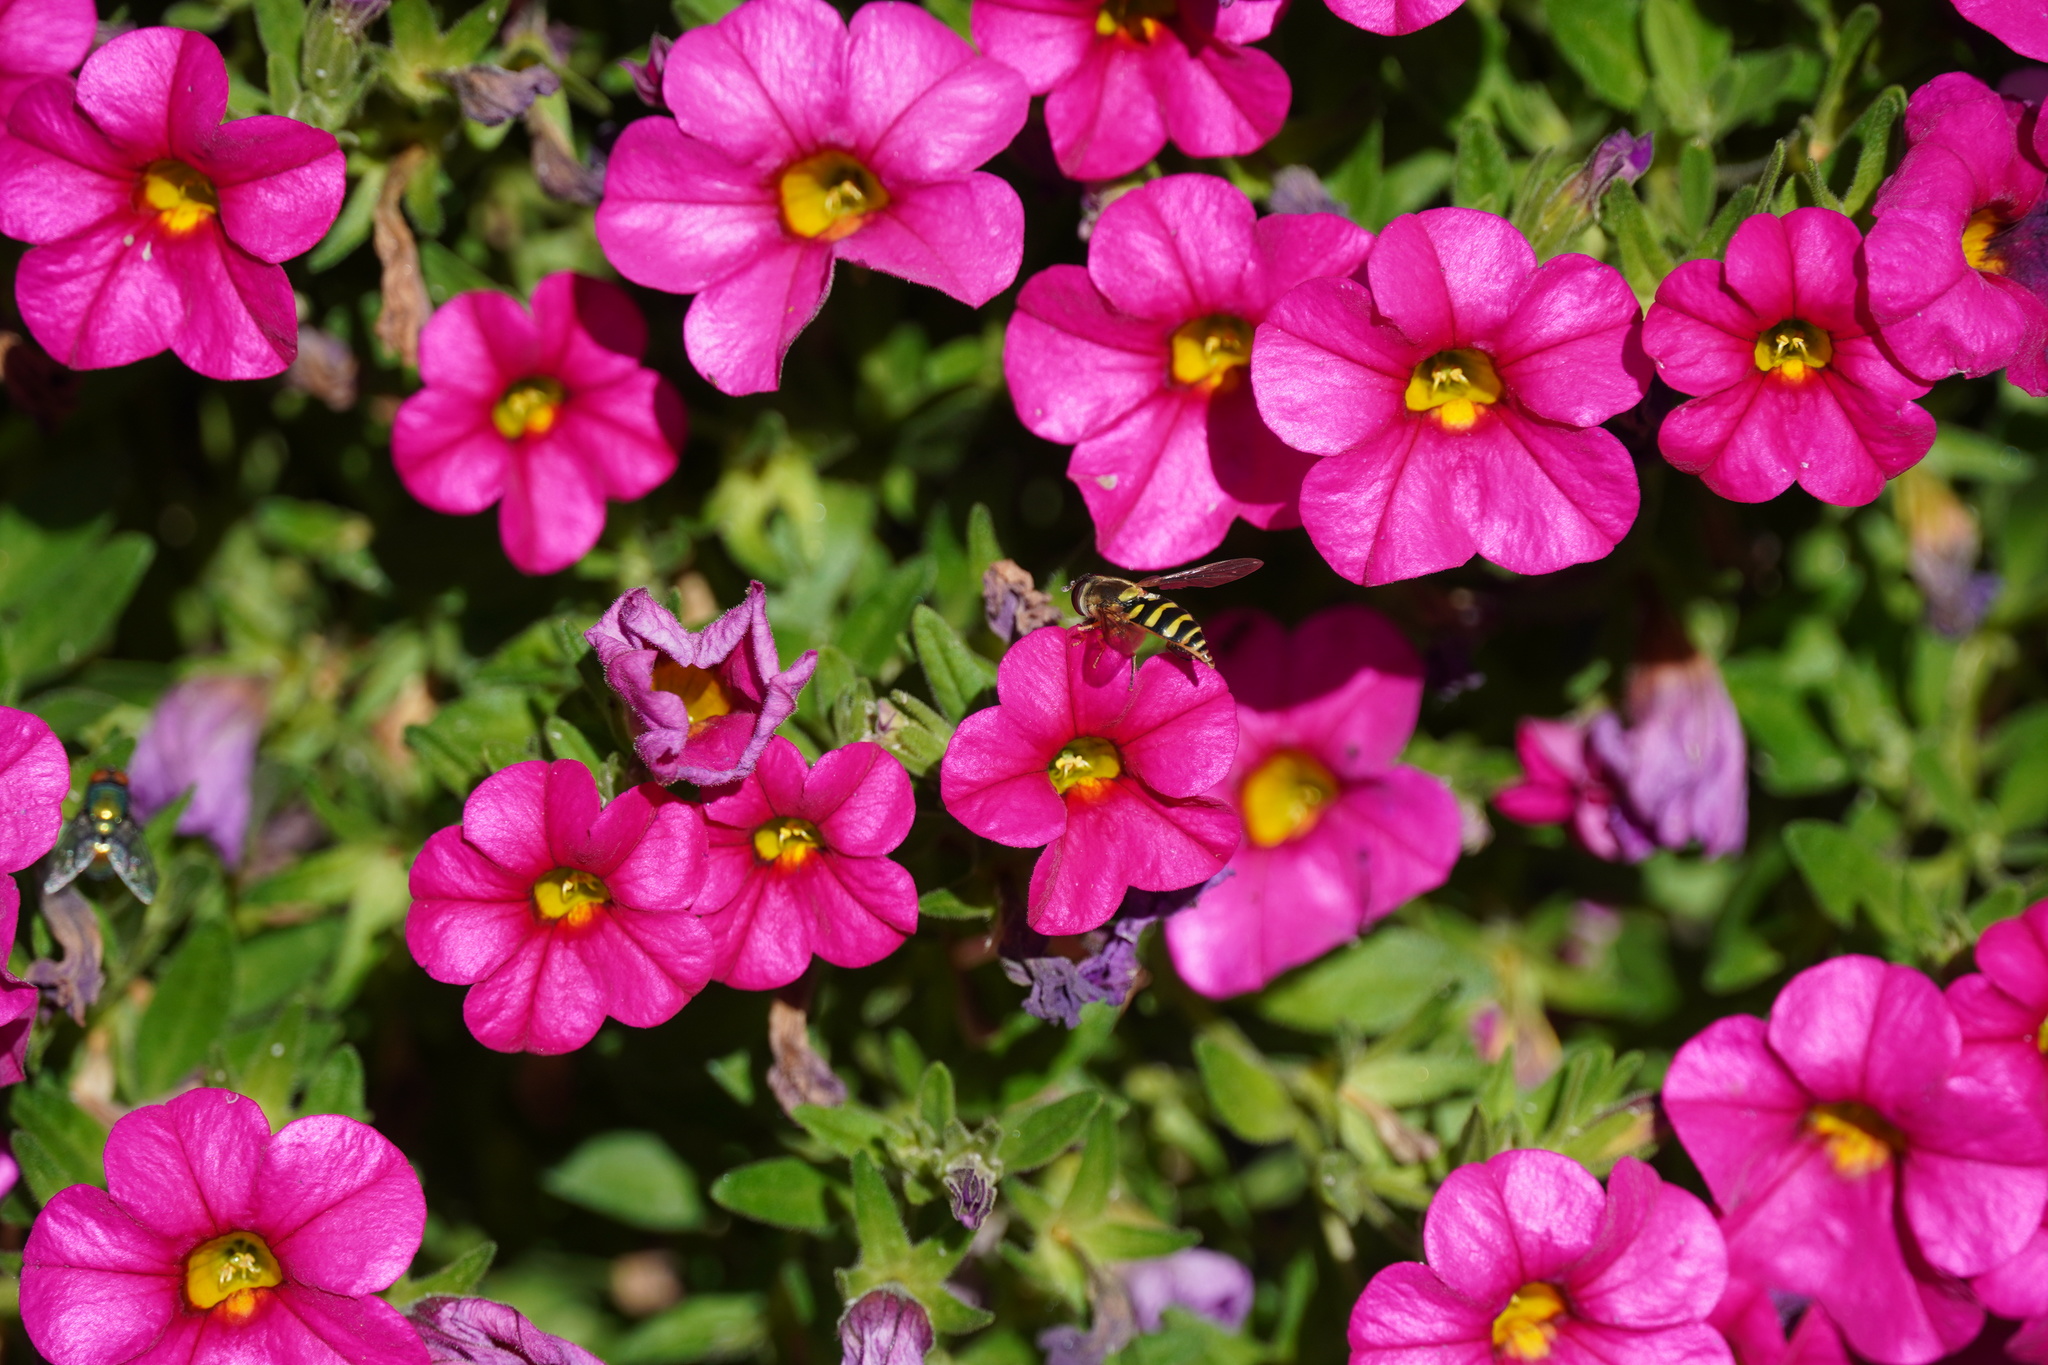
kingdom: Animalia
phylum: Arthropoda
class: Insecta
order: Diptera
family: Syrphidae
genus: Syrphus
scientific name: Syrphus opinator
